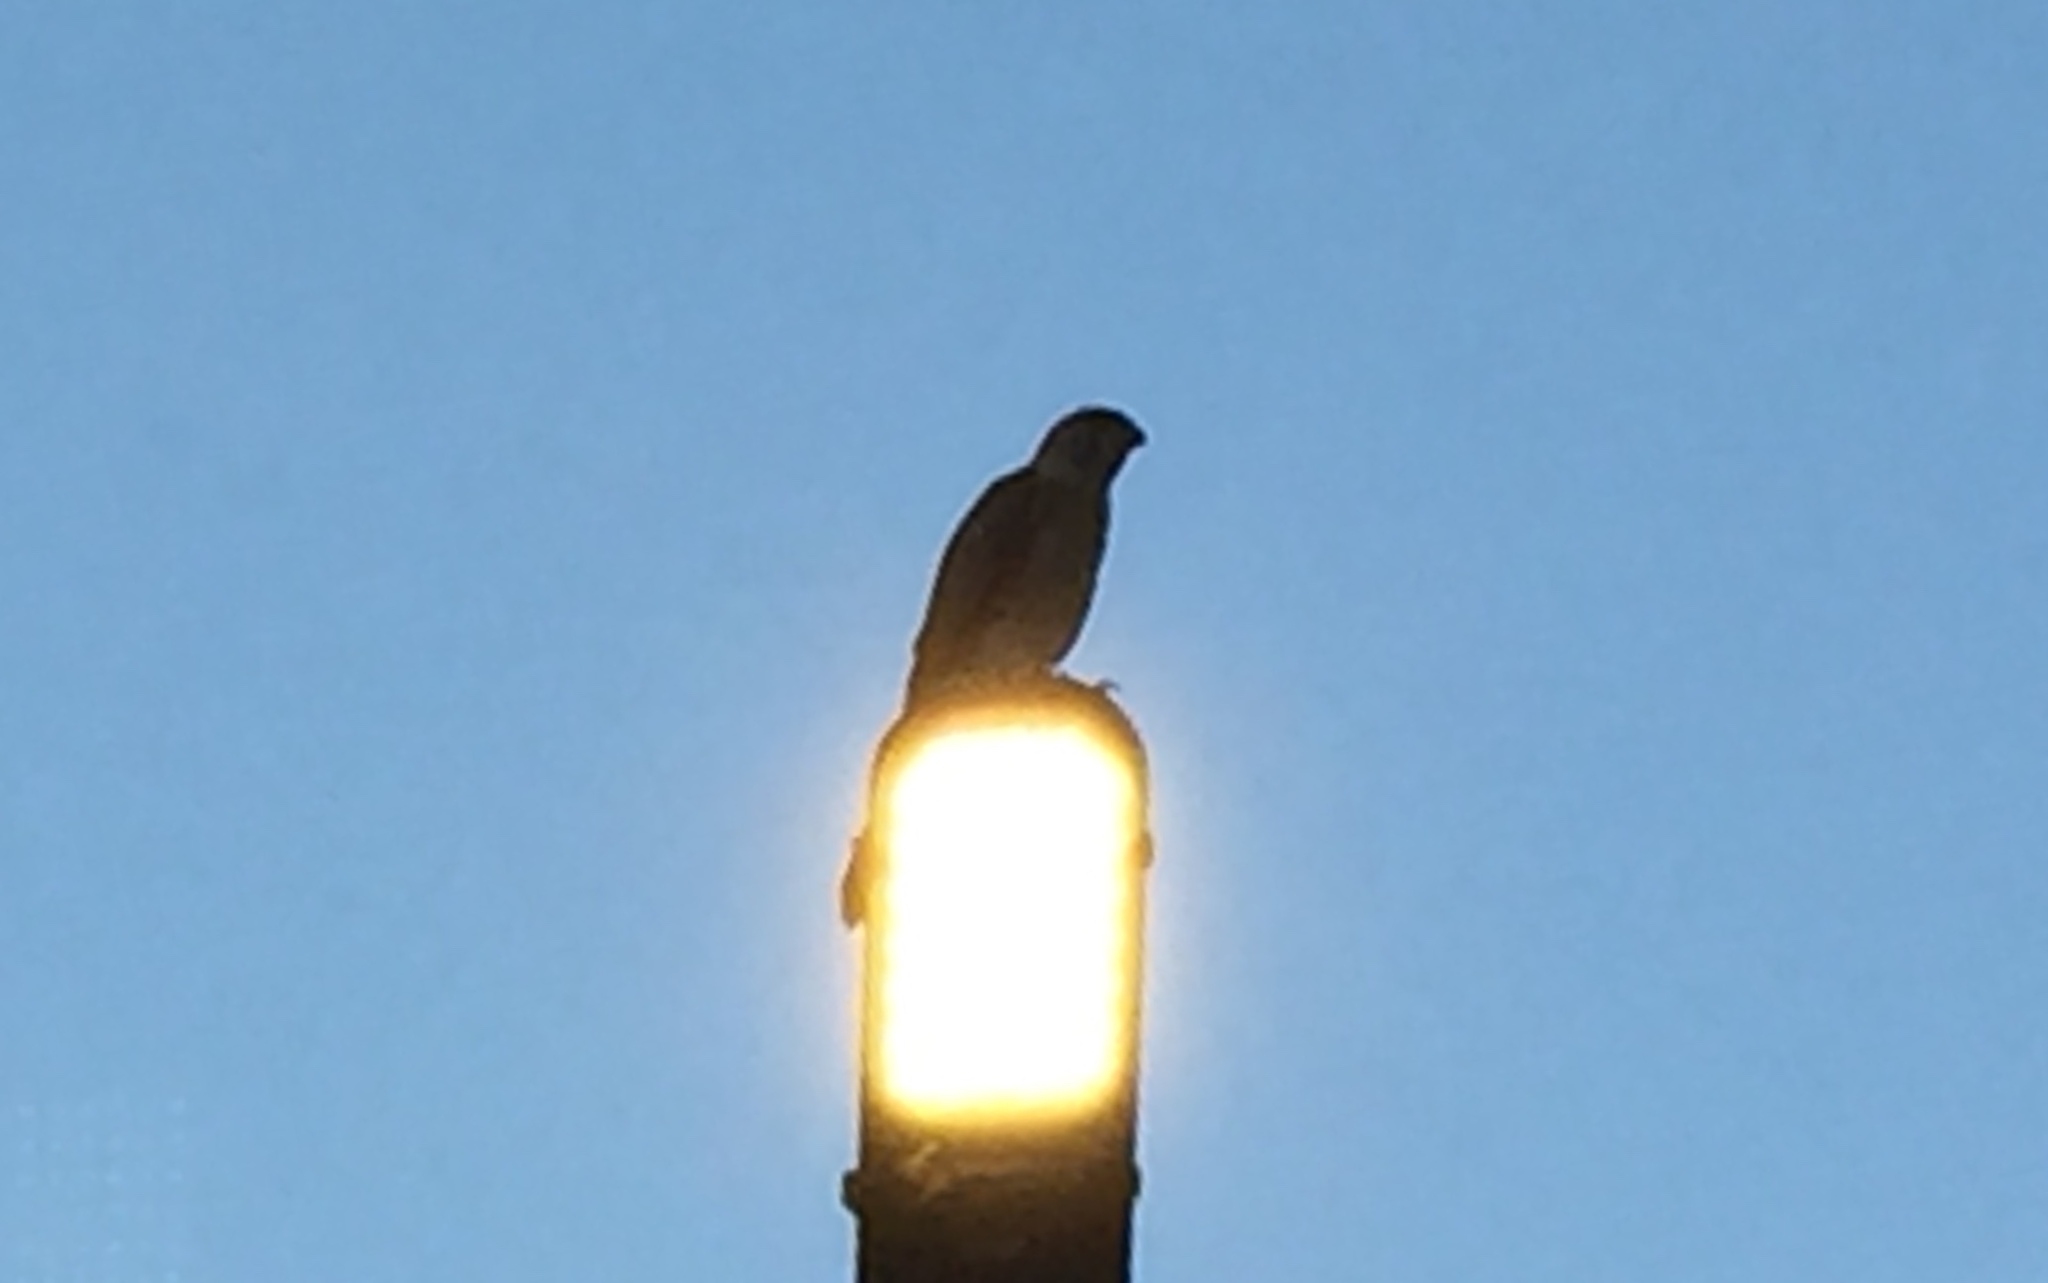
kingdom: Animalia
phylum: Chordata
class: Aves
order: Accipitriformes
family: Accipitridae
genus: Accipiter
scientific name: Accipiter badius
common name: Shikra
